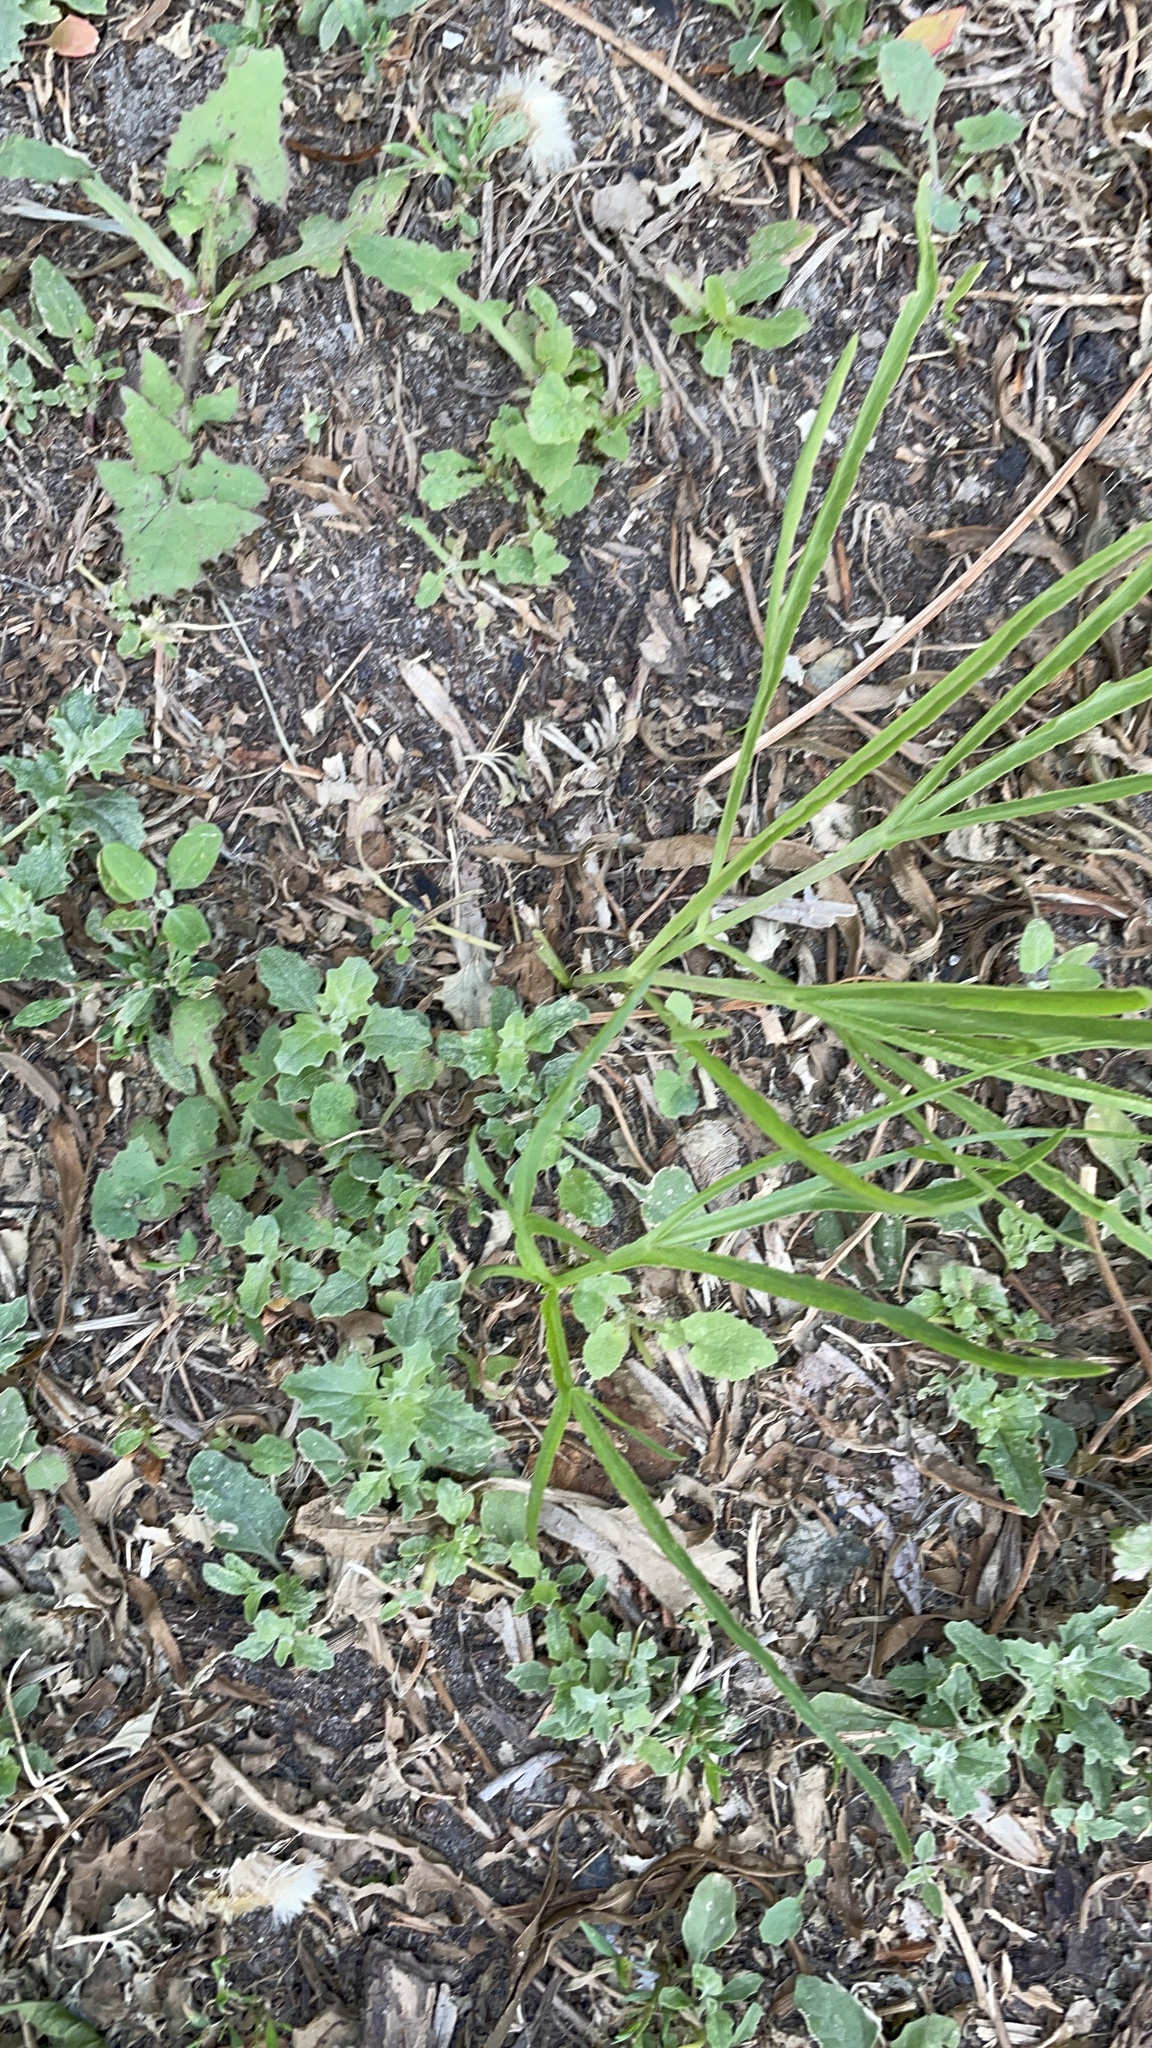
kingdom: Plantae
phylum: Tracheophyta
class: Magnoliopsida
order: Apiales
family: Apiaceae
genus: Falcaria
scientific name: Falcaria vulgaris
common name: Longleaf
